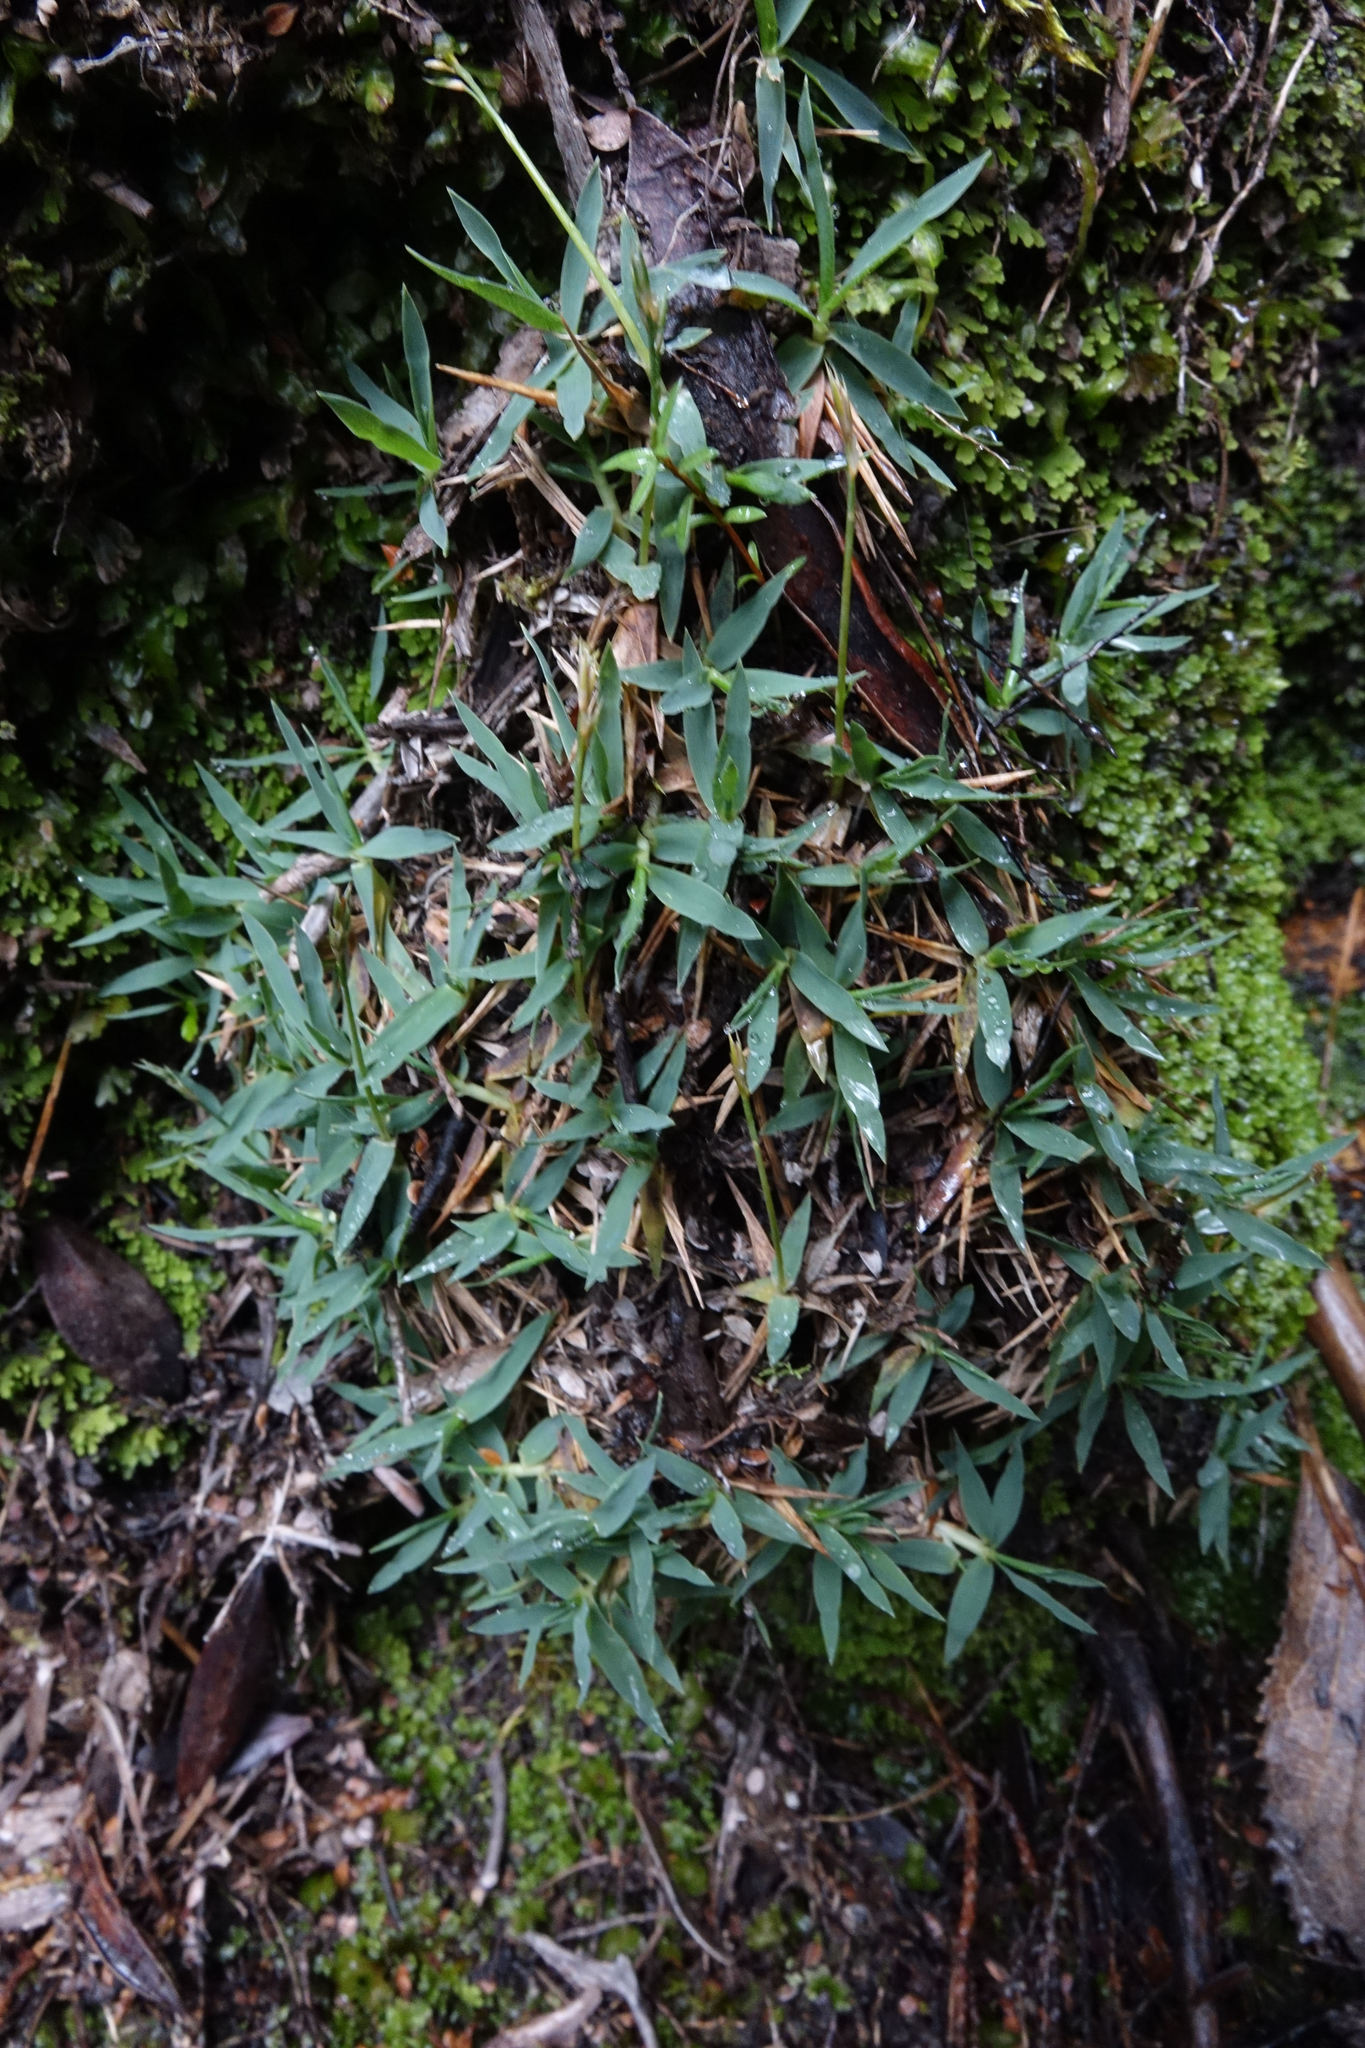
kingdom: Plantae
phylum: Tracheophyta
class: Liliopsida
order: Poales
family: Poaceae
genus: Zotovia
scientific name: Zotovia thomsonii
